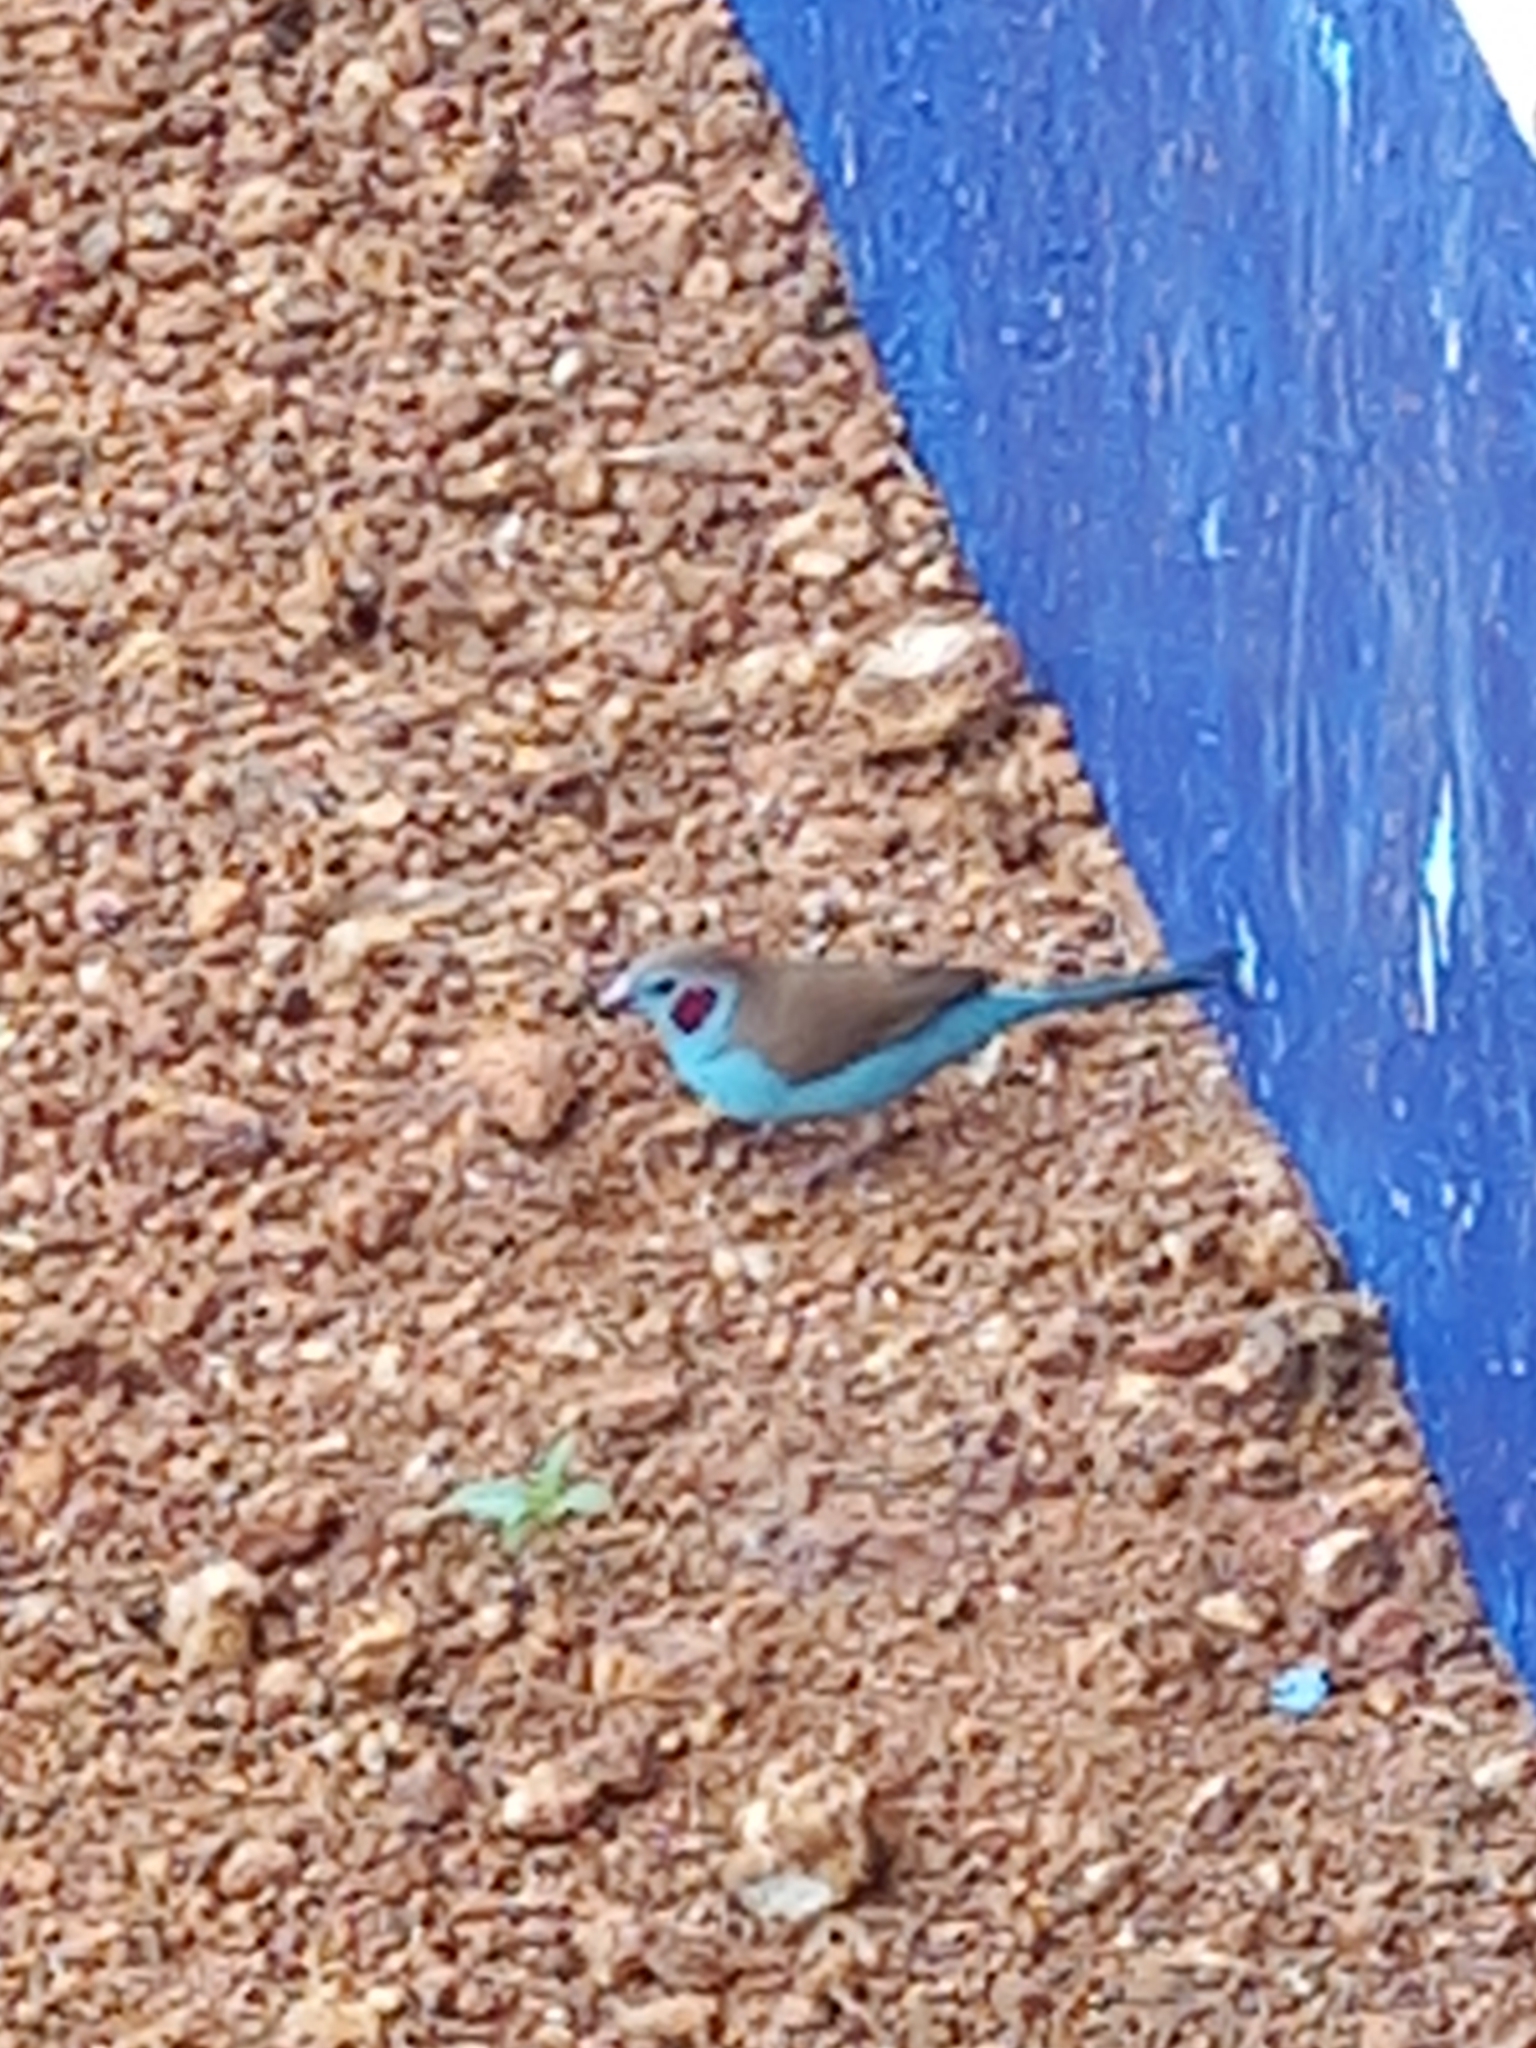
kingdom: Animalia
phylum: Chordata
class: Aves
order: Passeriformes
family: Estrildidae
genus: Uraeginthus
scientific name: Uraeginthus bengalus
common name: Red-cheeked cordon-bleu
